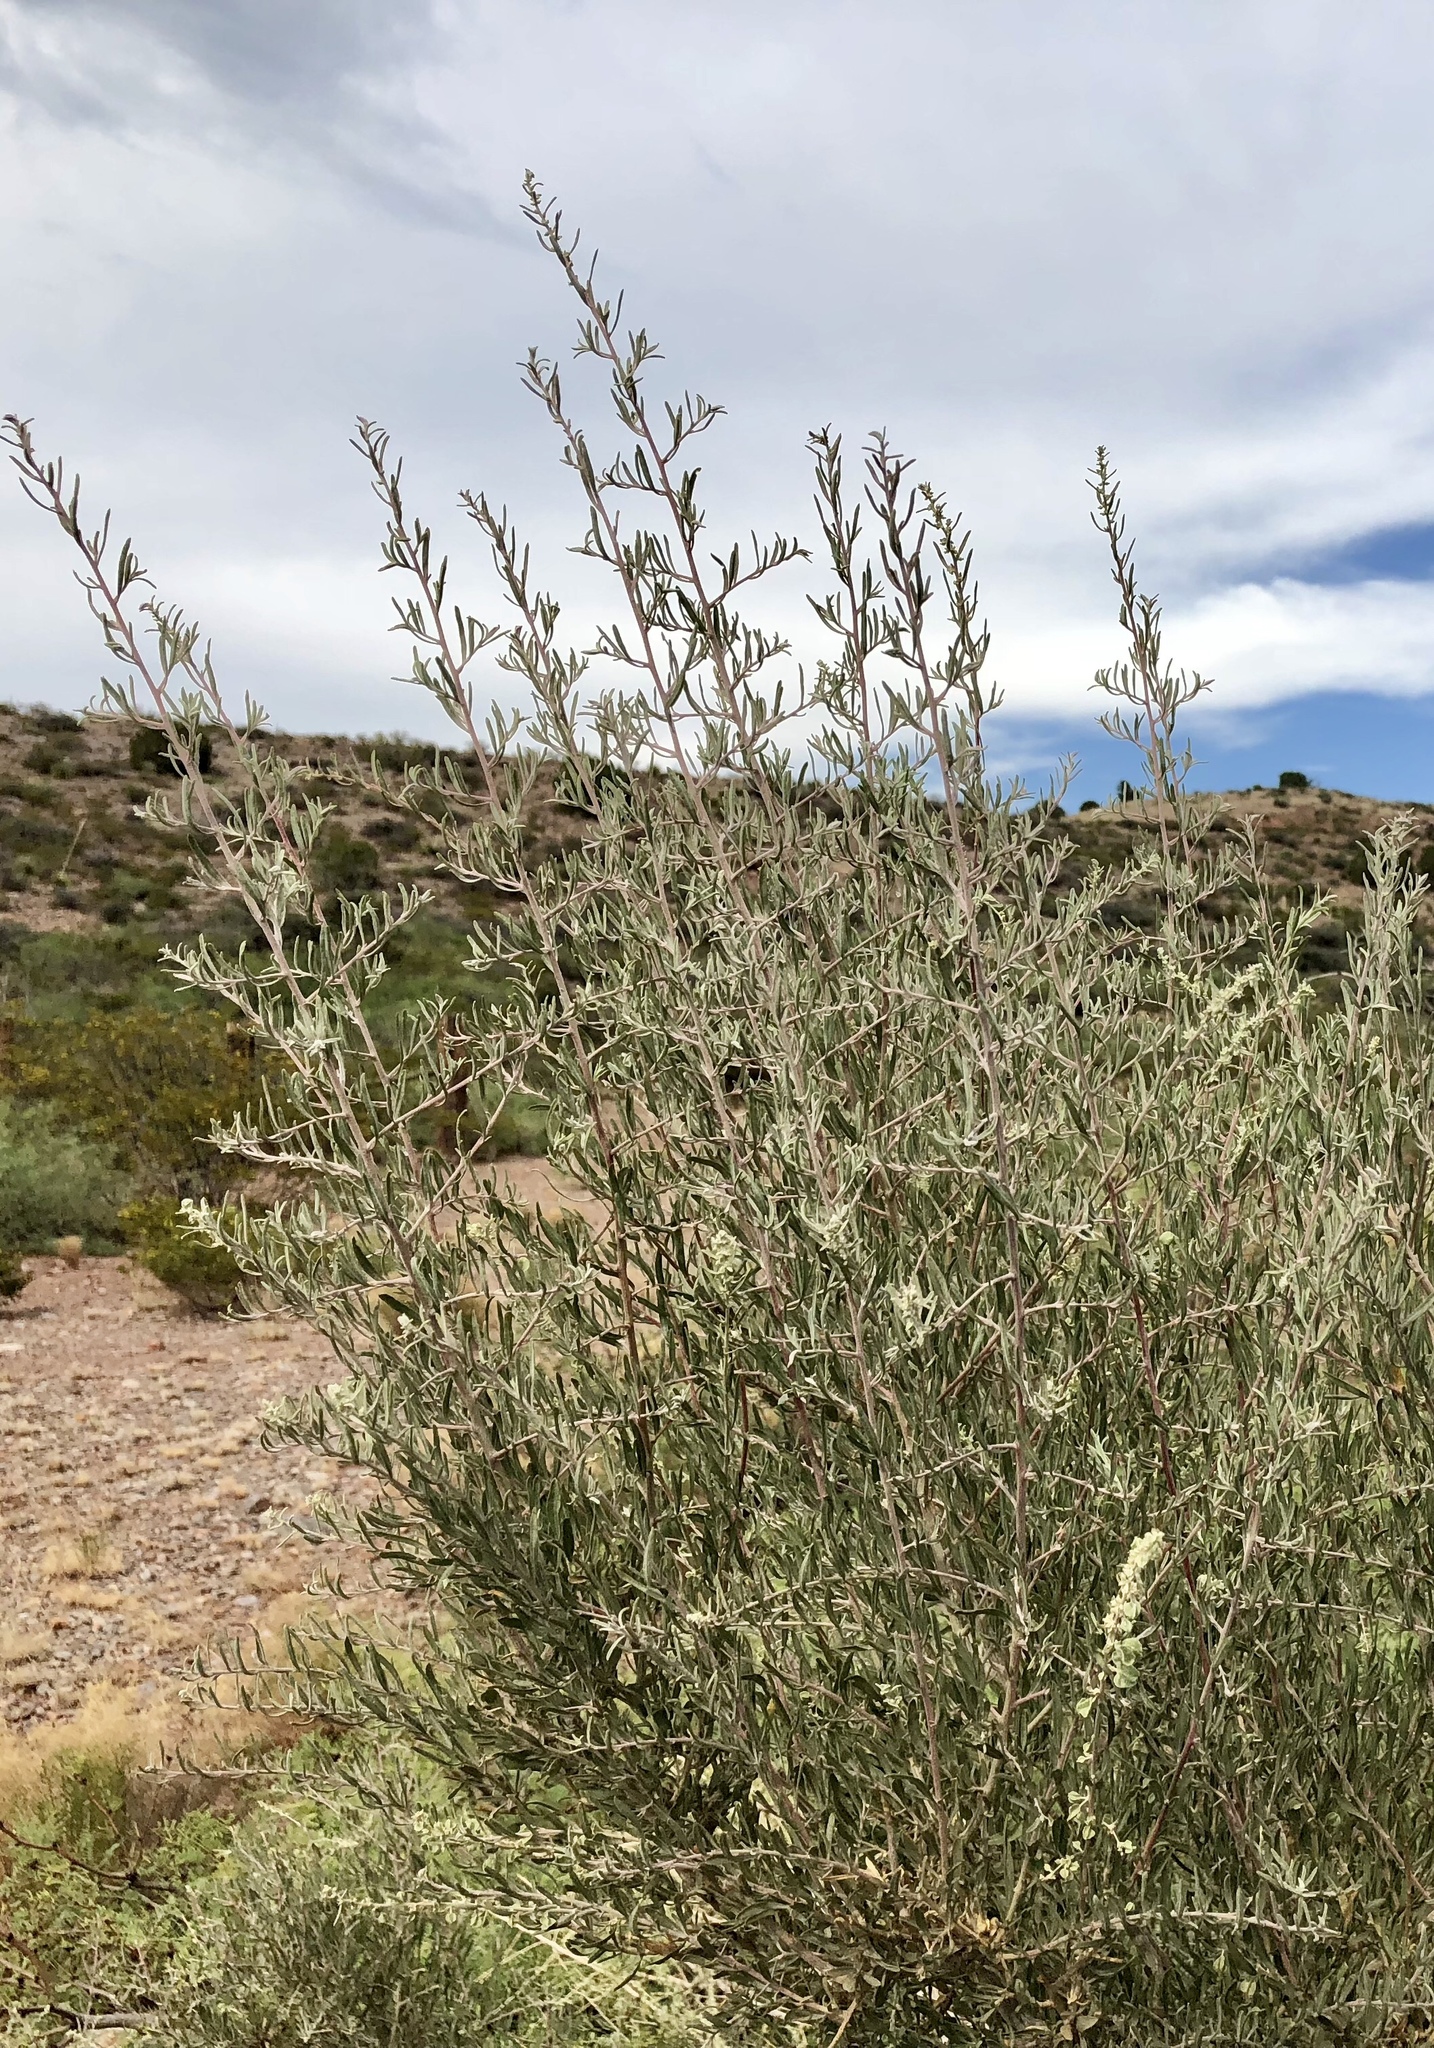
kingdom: Plantae
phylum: Tracheophyta
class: Magnoliopsida
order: Caryophyllales
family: Amaranthaceae
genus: Atriplex
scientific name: Atriplex canescens
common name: Four-wing saltbush
